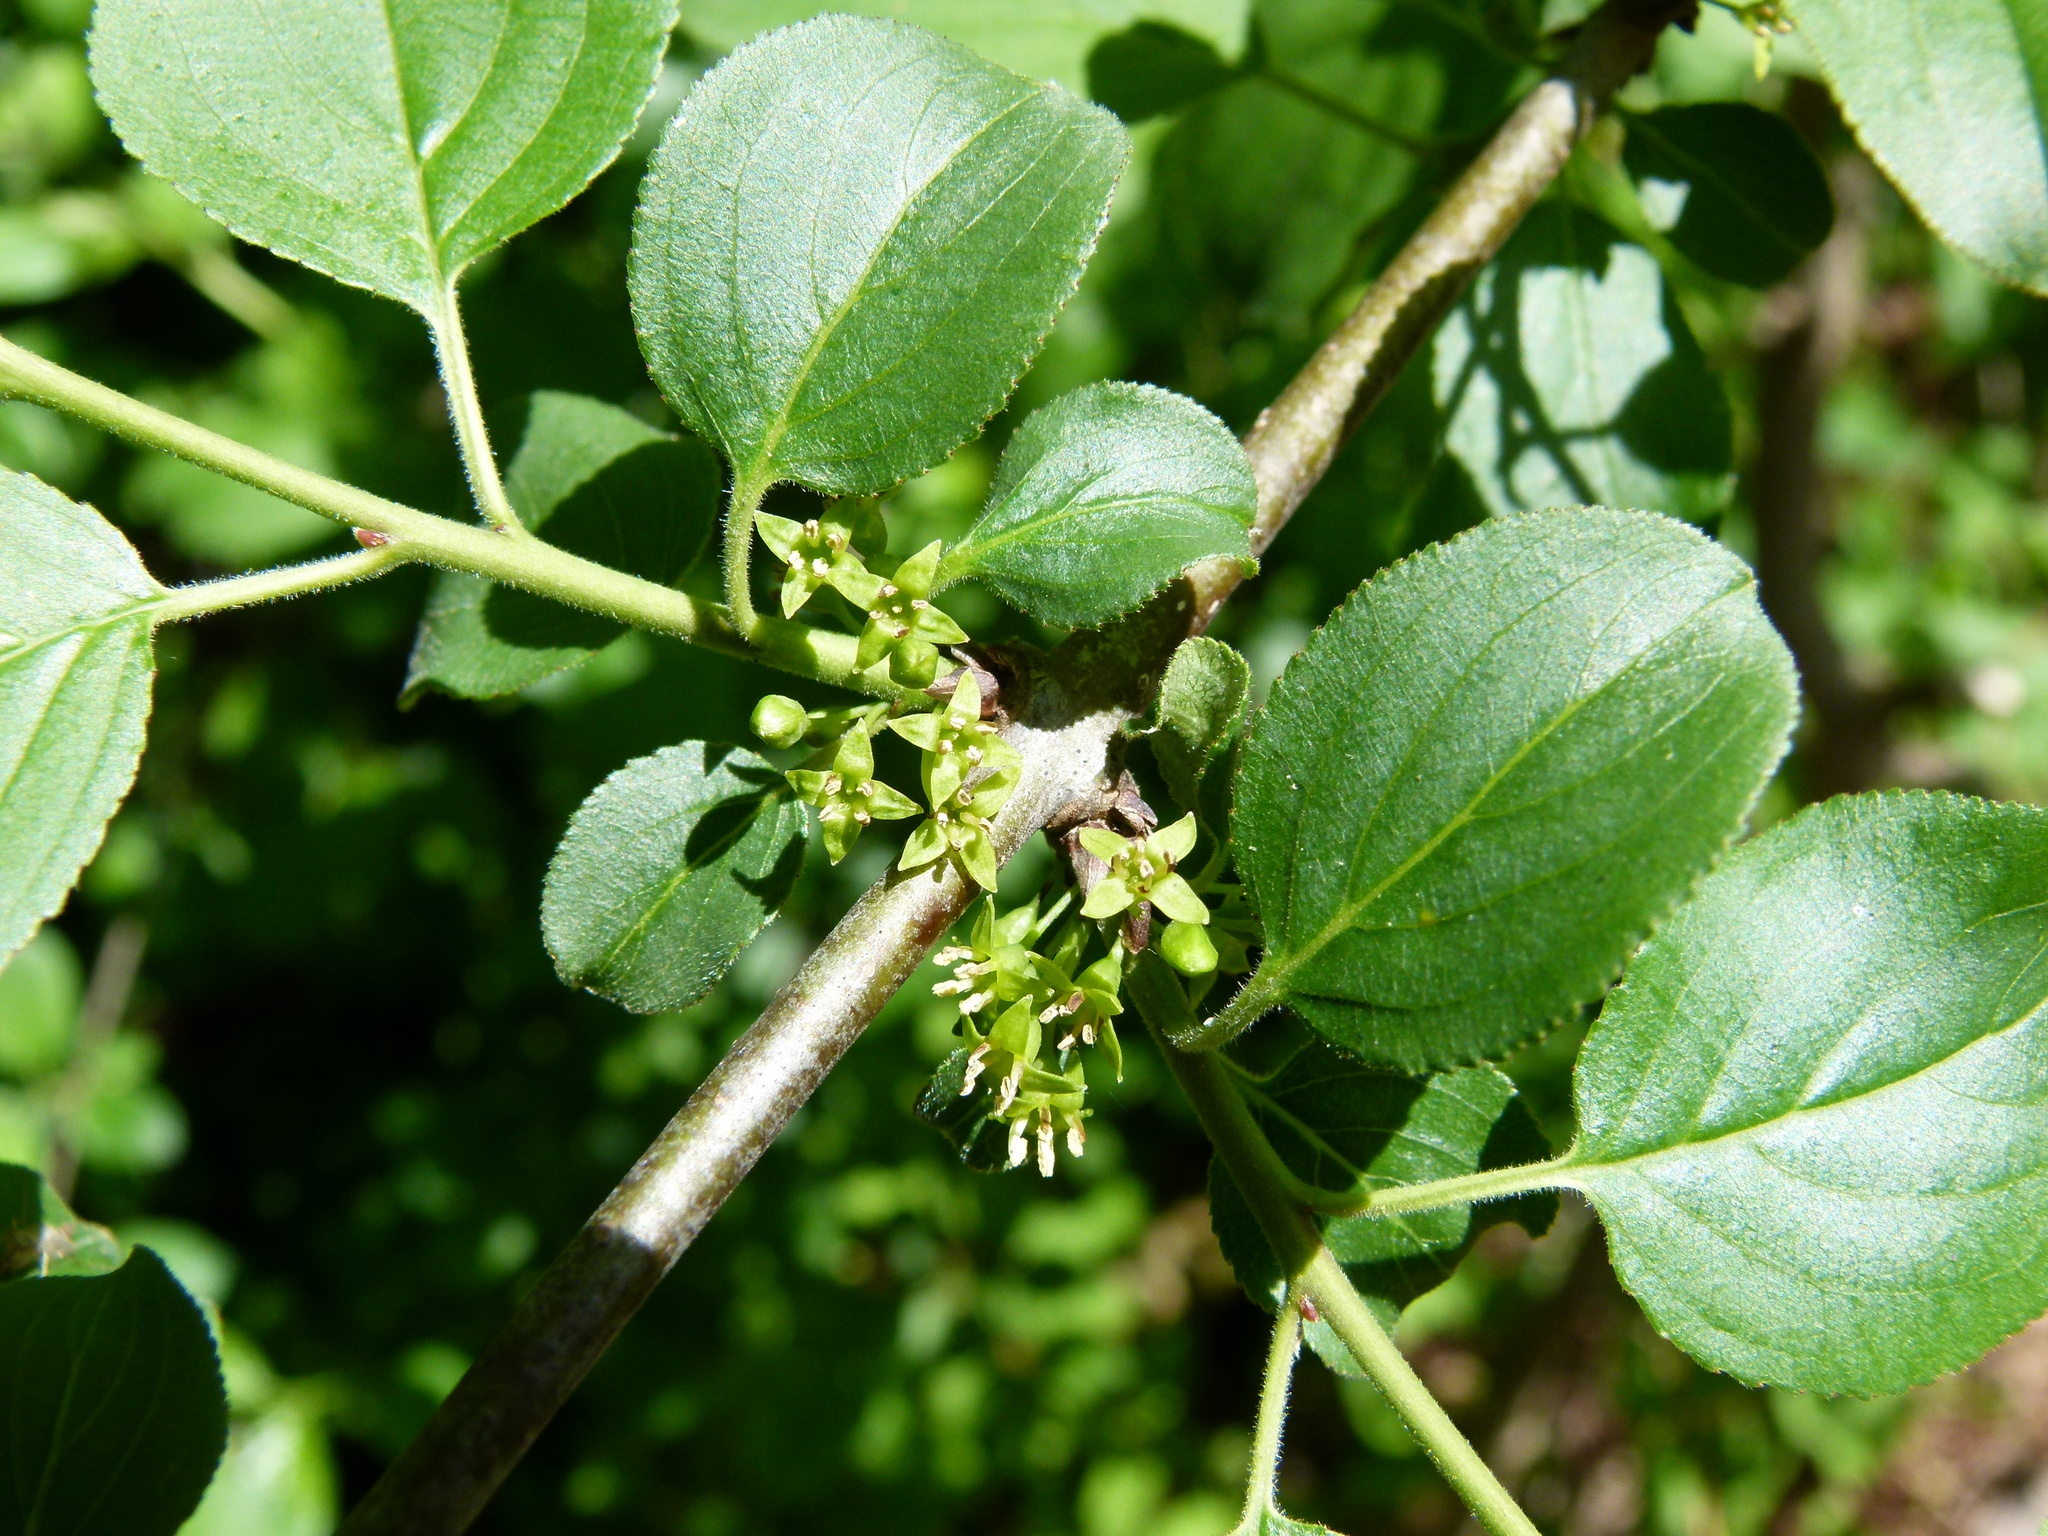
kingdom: Plantae
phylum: Tracheophyta
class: Magnoliopsida
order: Rosales
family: Rhamnaceae
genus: Rhamnus
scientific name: Rhamnus cathartica
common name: Common buckthorn
